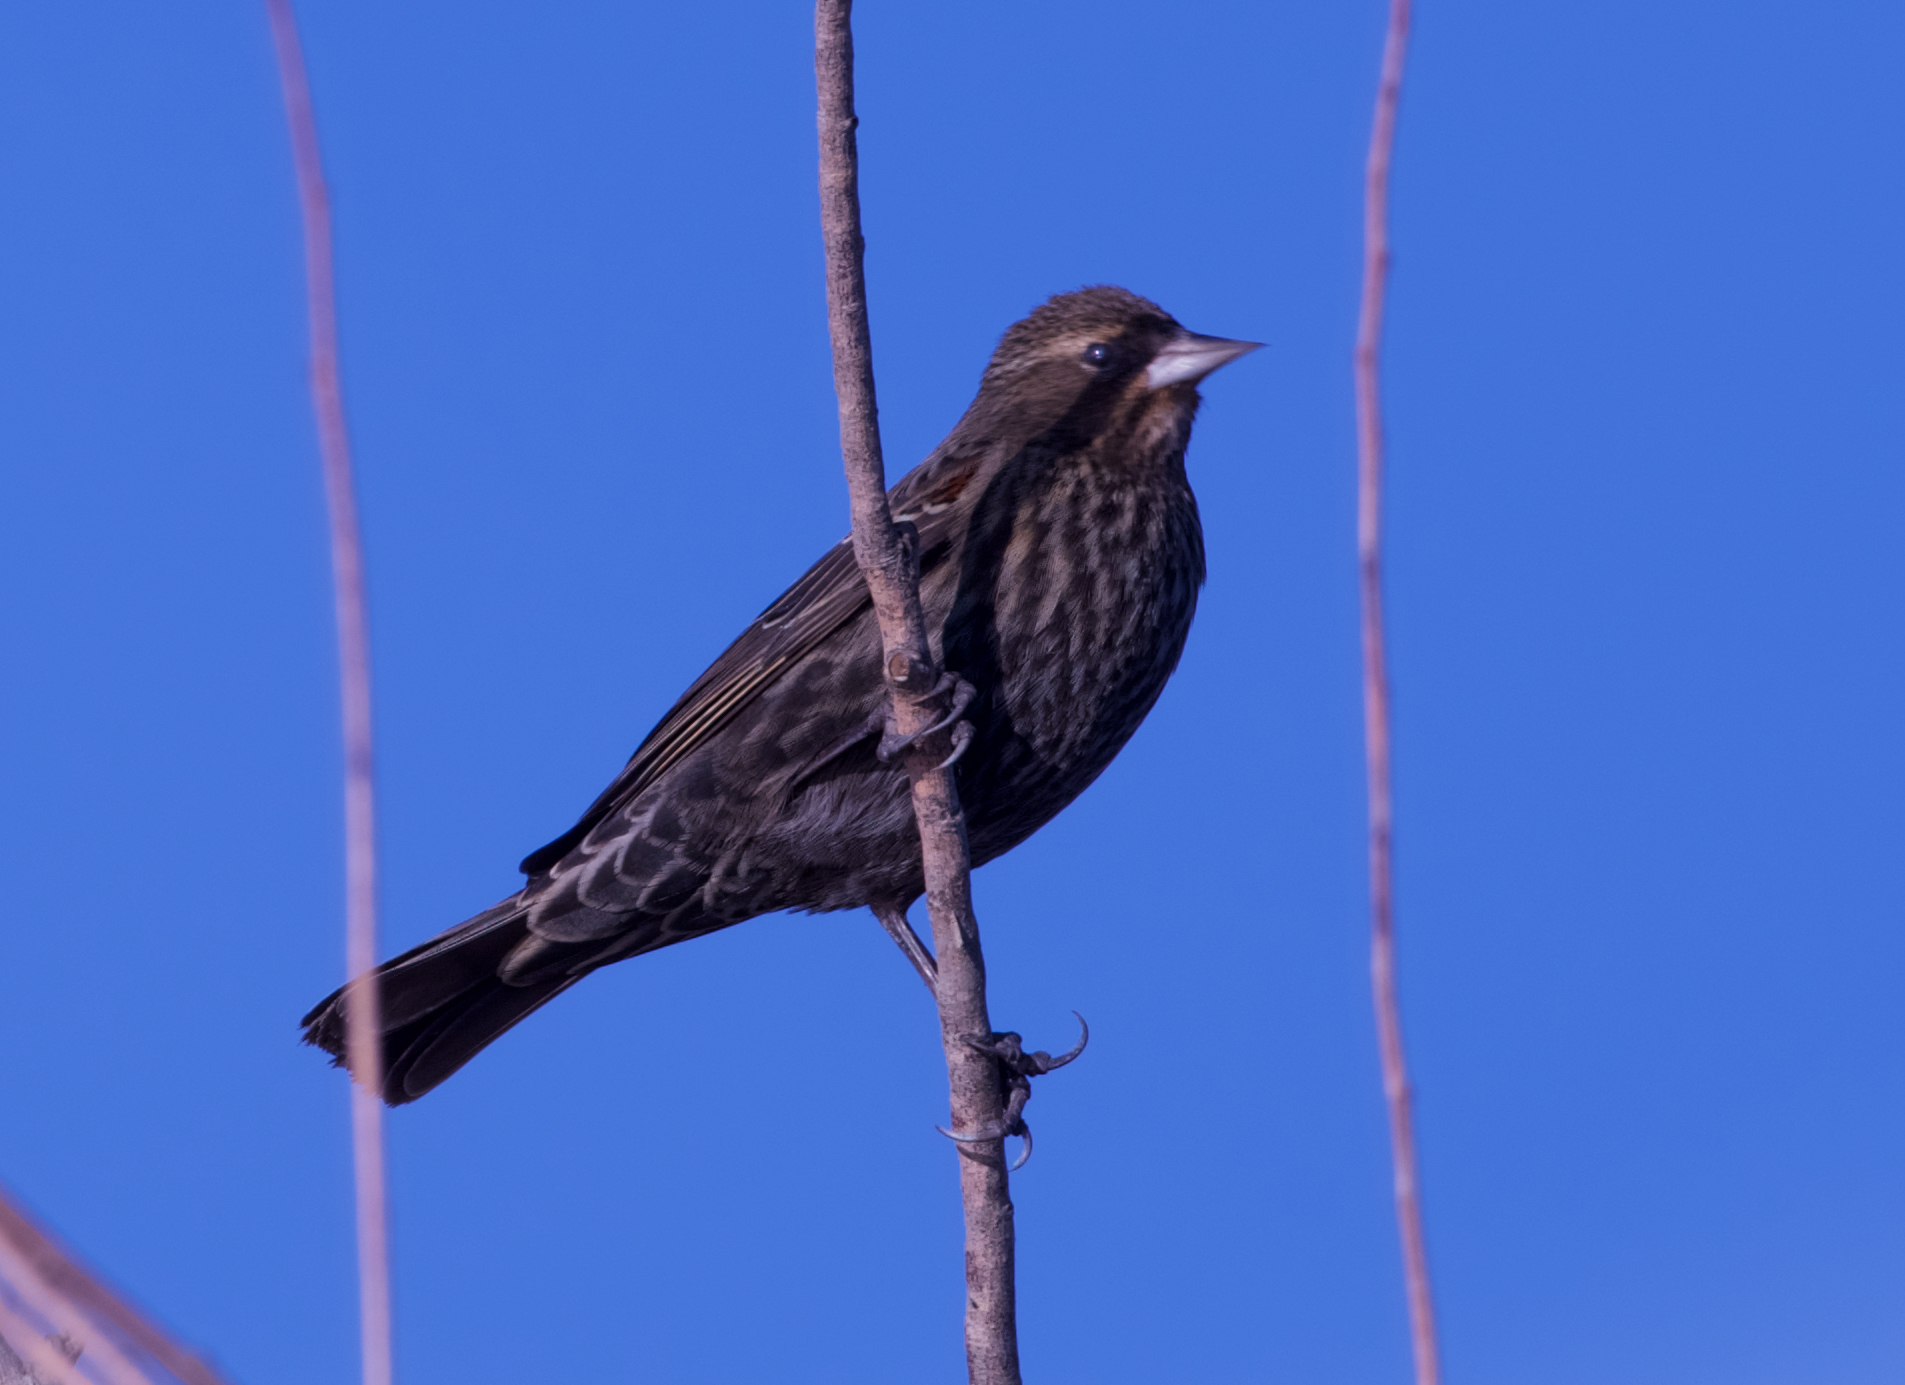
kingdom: Animalia
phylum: Chordata
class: Aves
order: Passeriformes
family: Icteridae
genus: Agelaius
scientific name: Agelaius phoeniceus
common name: Red-winged blackbird
